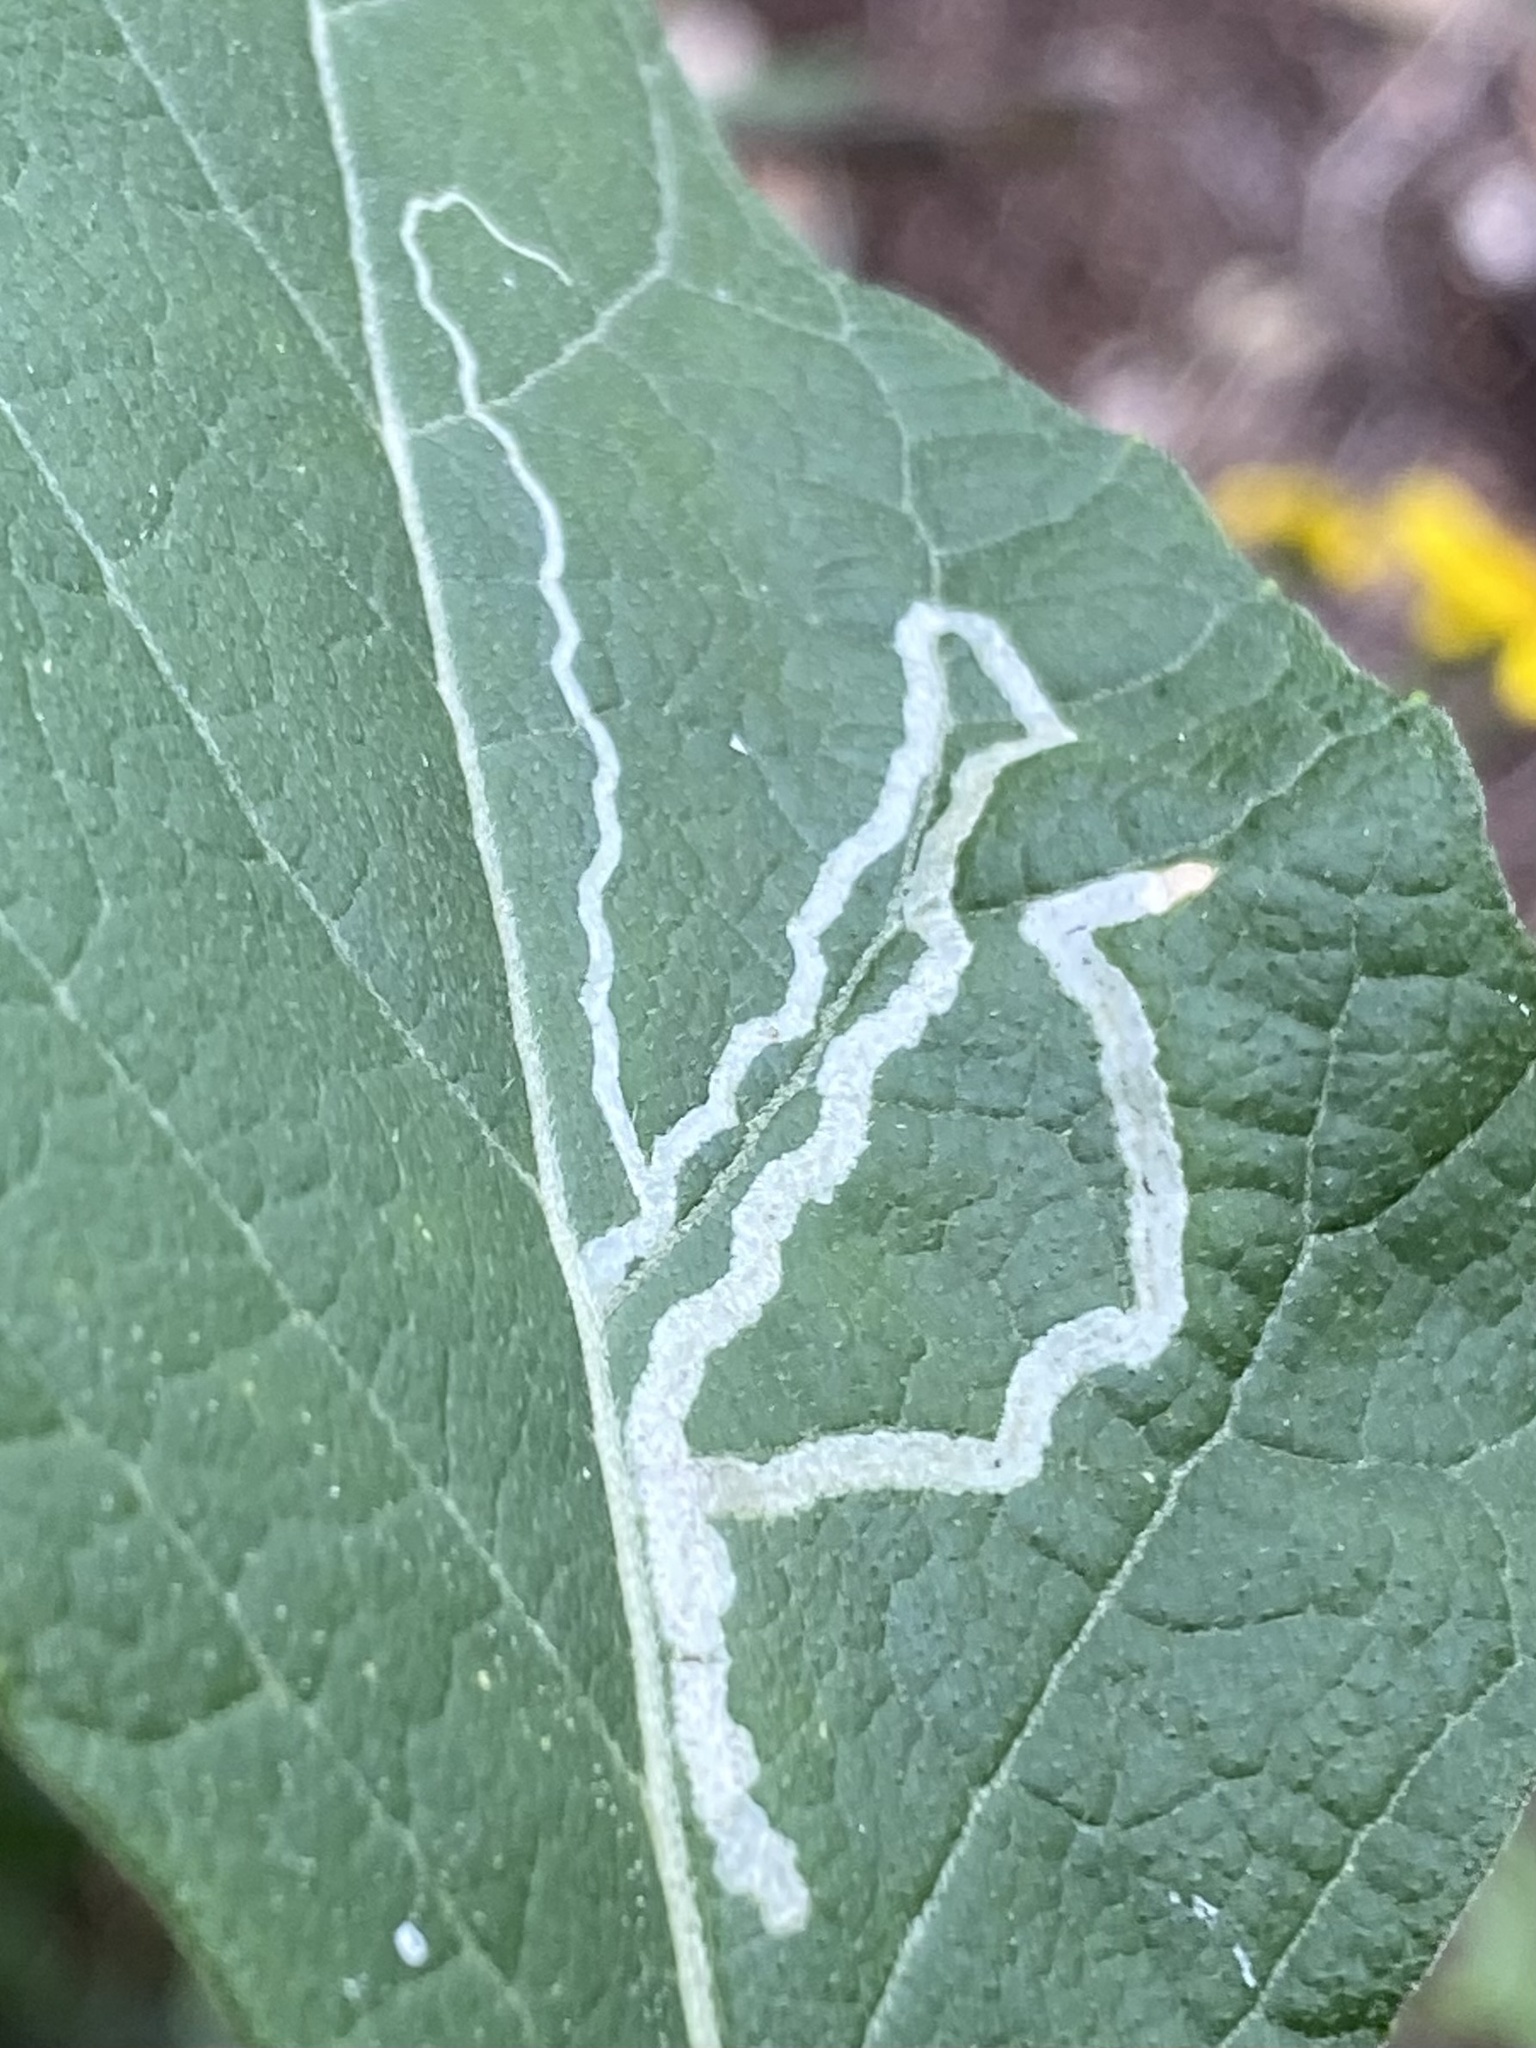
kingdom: Animalia
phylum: Arthropoda
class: Insecta
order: Diptera
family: Agromyzidae
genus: Liriomyza
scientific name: Liriomyza
